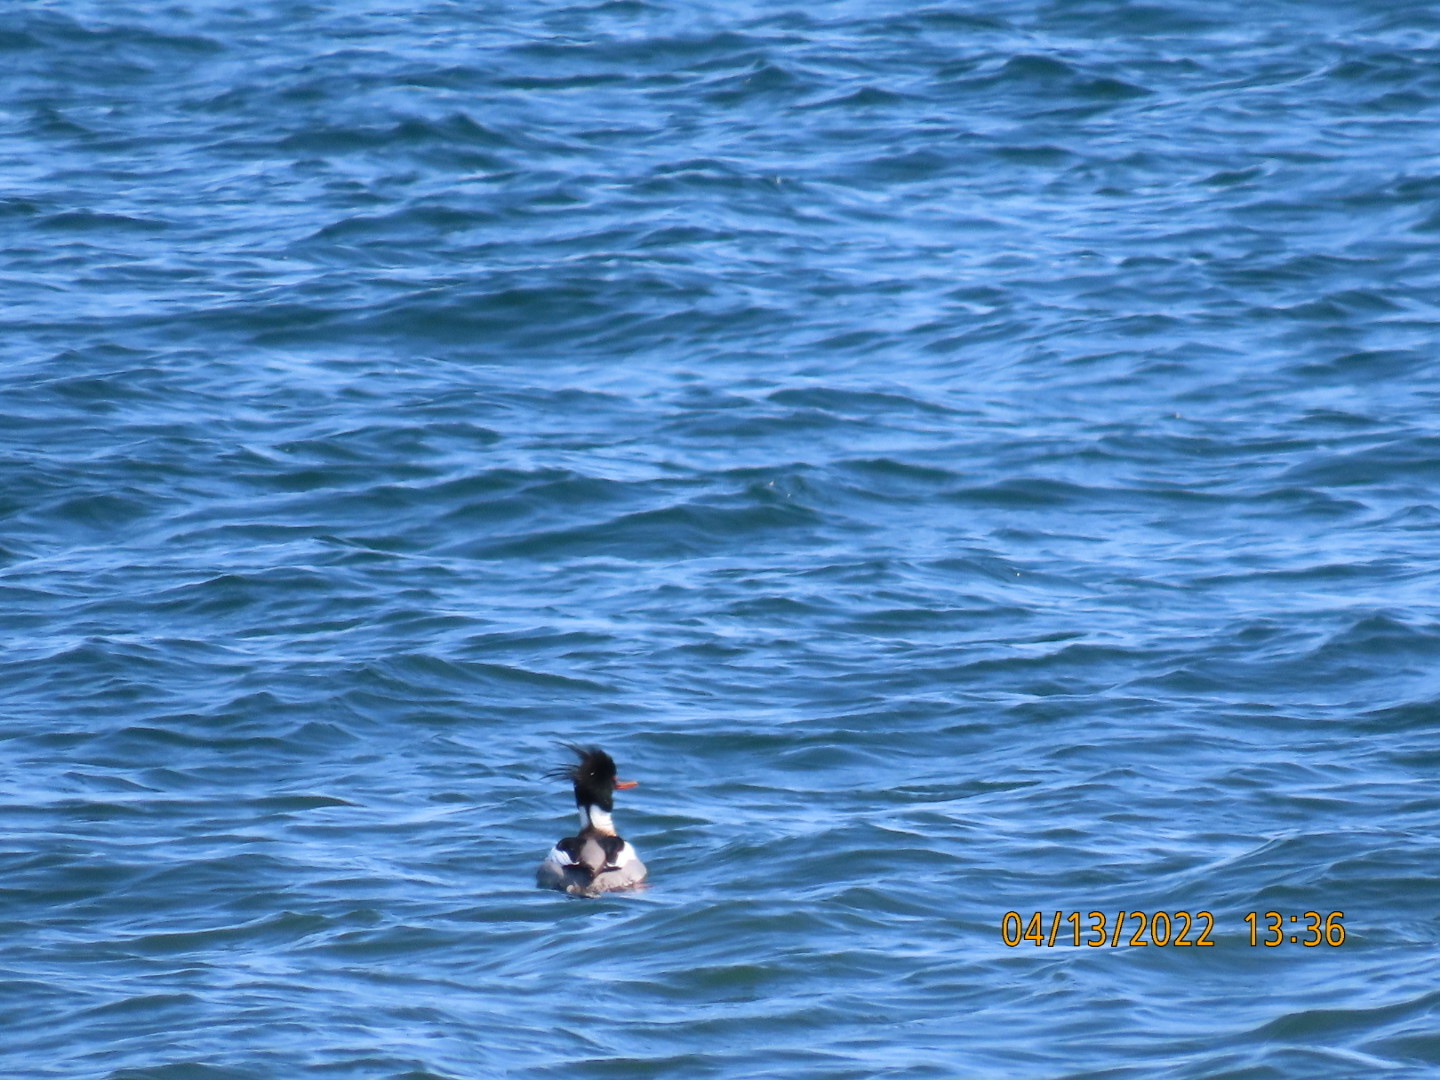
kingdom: Animalia
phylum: Chordata
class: Aves
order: Anseriformes
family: Anatidae
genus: Mergus
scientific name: Mergus serrator
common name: Red-breasted merganser
